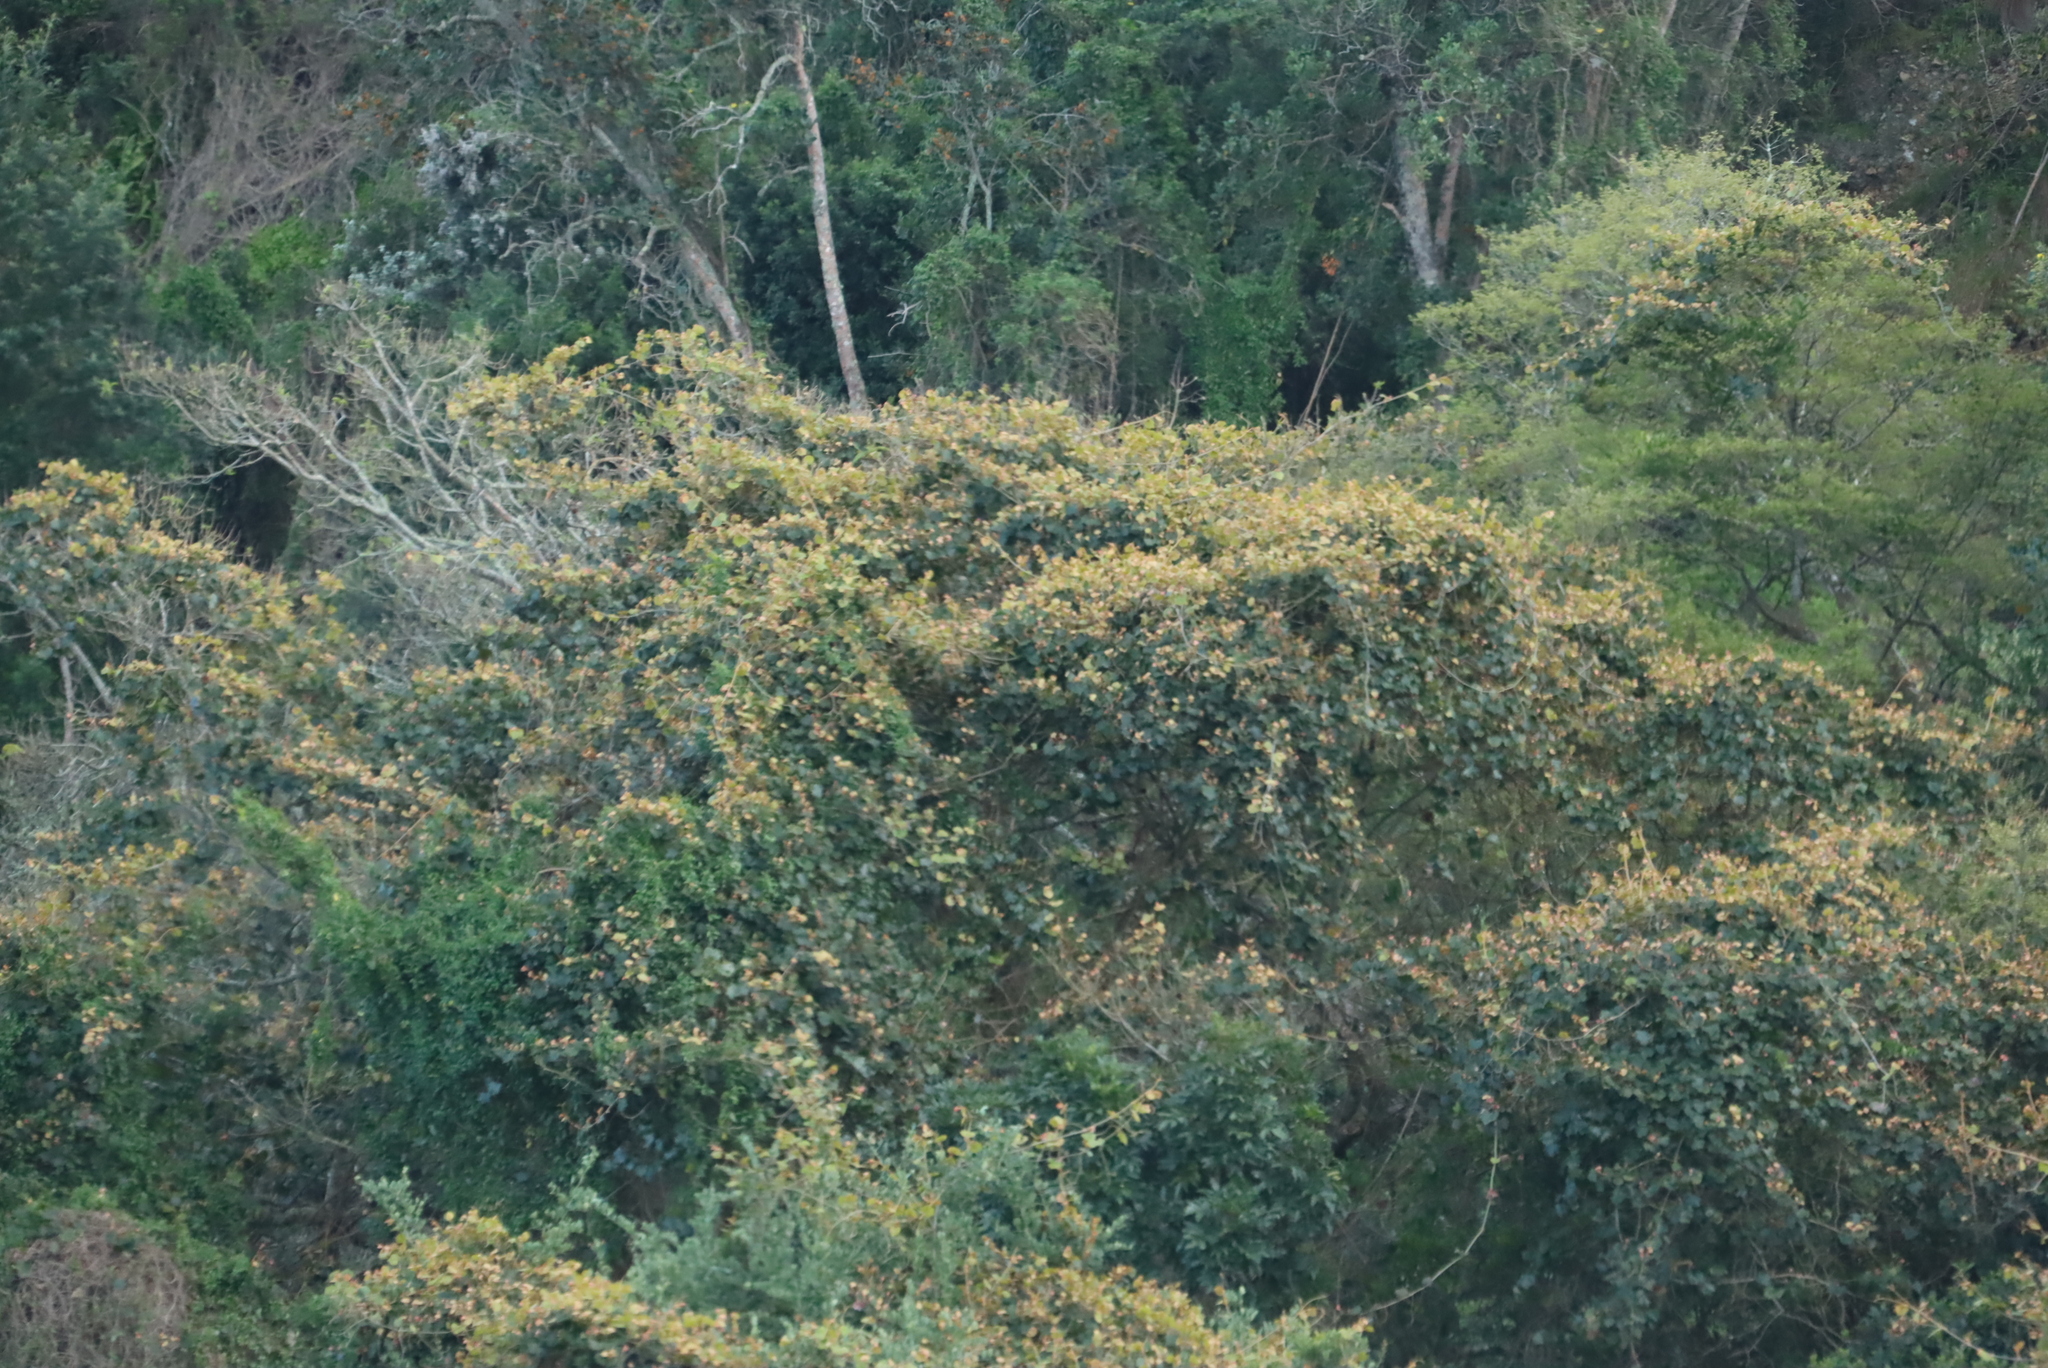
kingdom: Plantae
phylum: Tracheophyta
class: Magnoliopsida
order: Vitales
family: Vitaceae
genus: Rhoicissus
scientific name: Rhoicissus tomentosa
